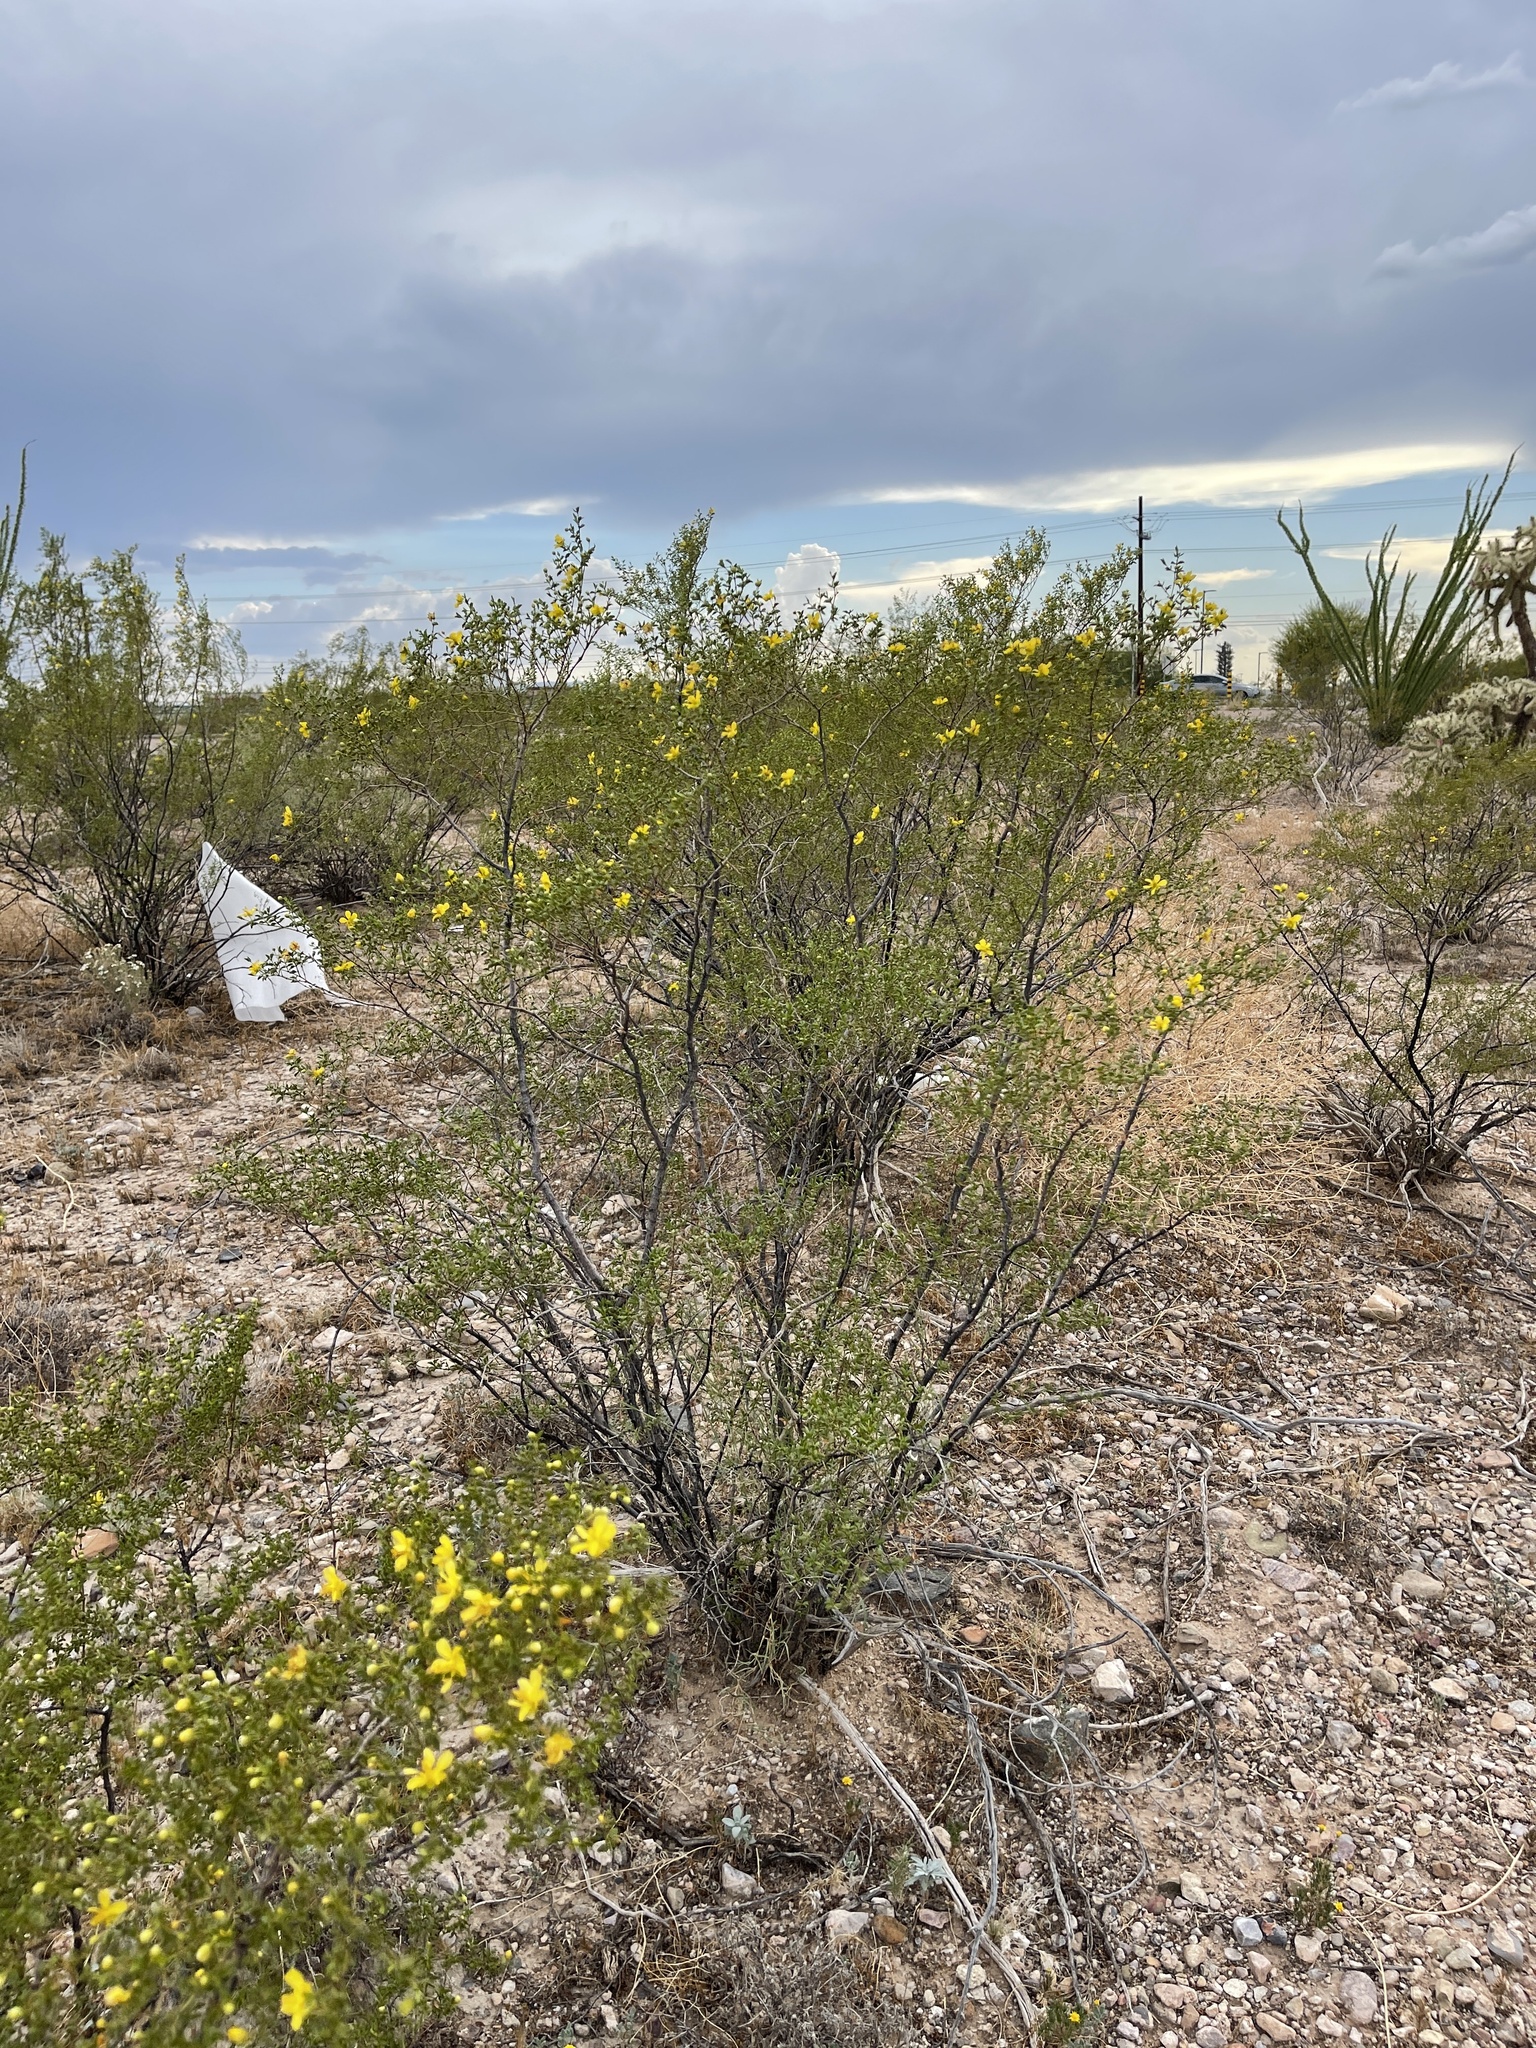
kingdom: Plantae
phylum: Tracheophyta
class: Magnoliopsida
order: Zygophyllales
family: Zygophyllaceae
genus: Larrea
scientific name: Larrea tridentata
